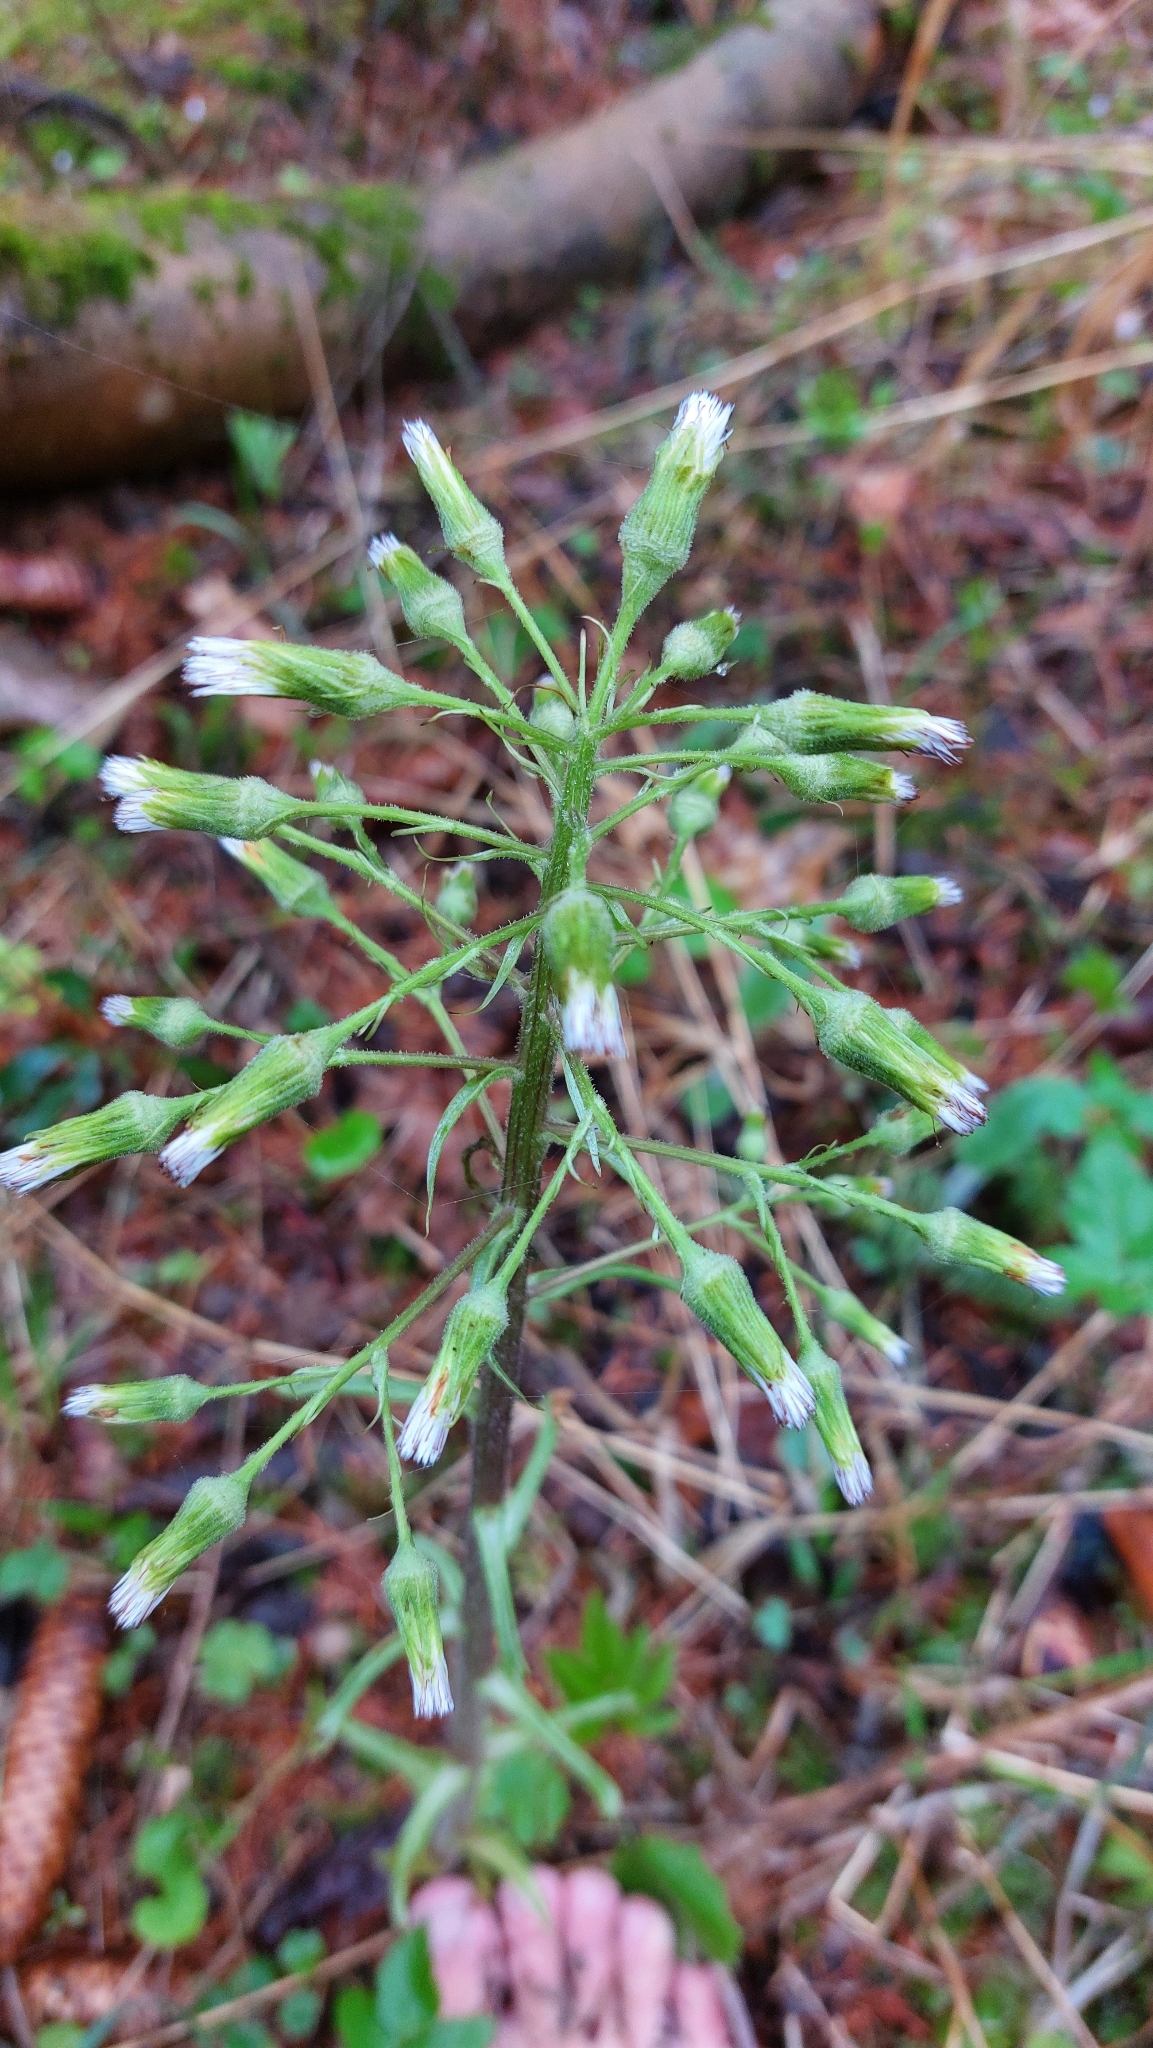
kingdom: Plantae
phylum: Tracheophyta
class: Magnoliopsida
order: Asterales
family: Asteraceae
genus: Petasites
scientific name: Petasites albus
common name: White butterbur
